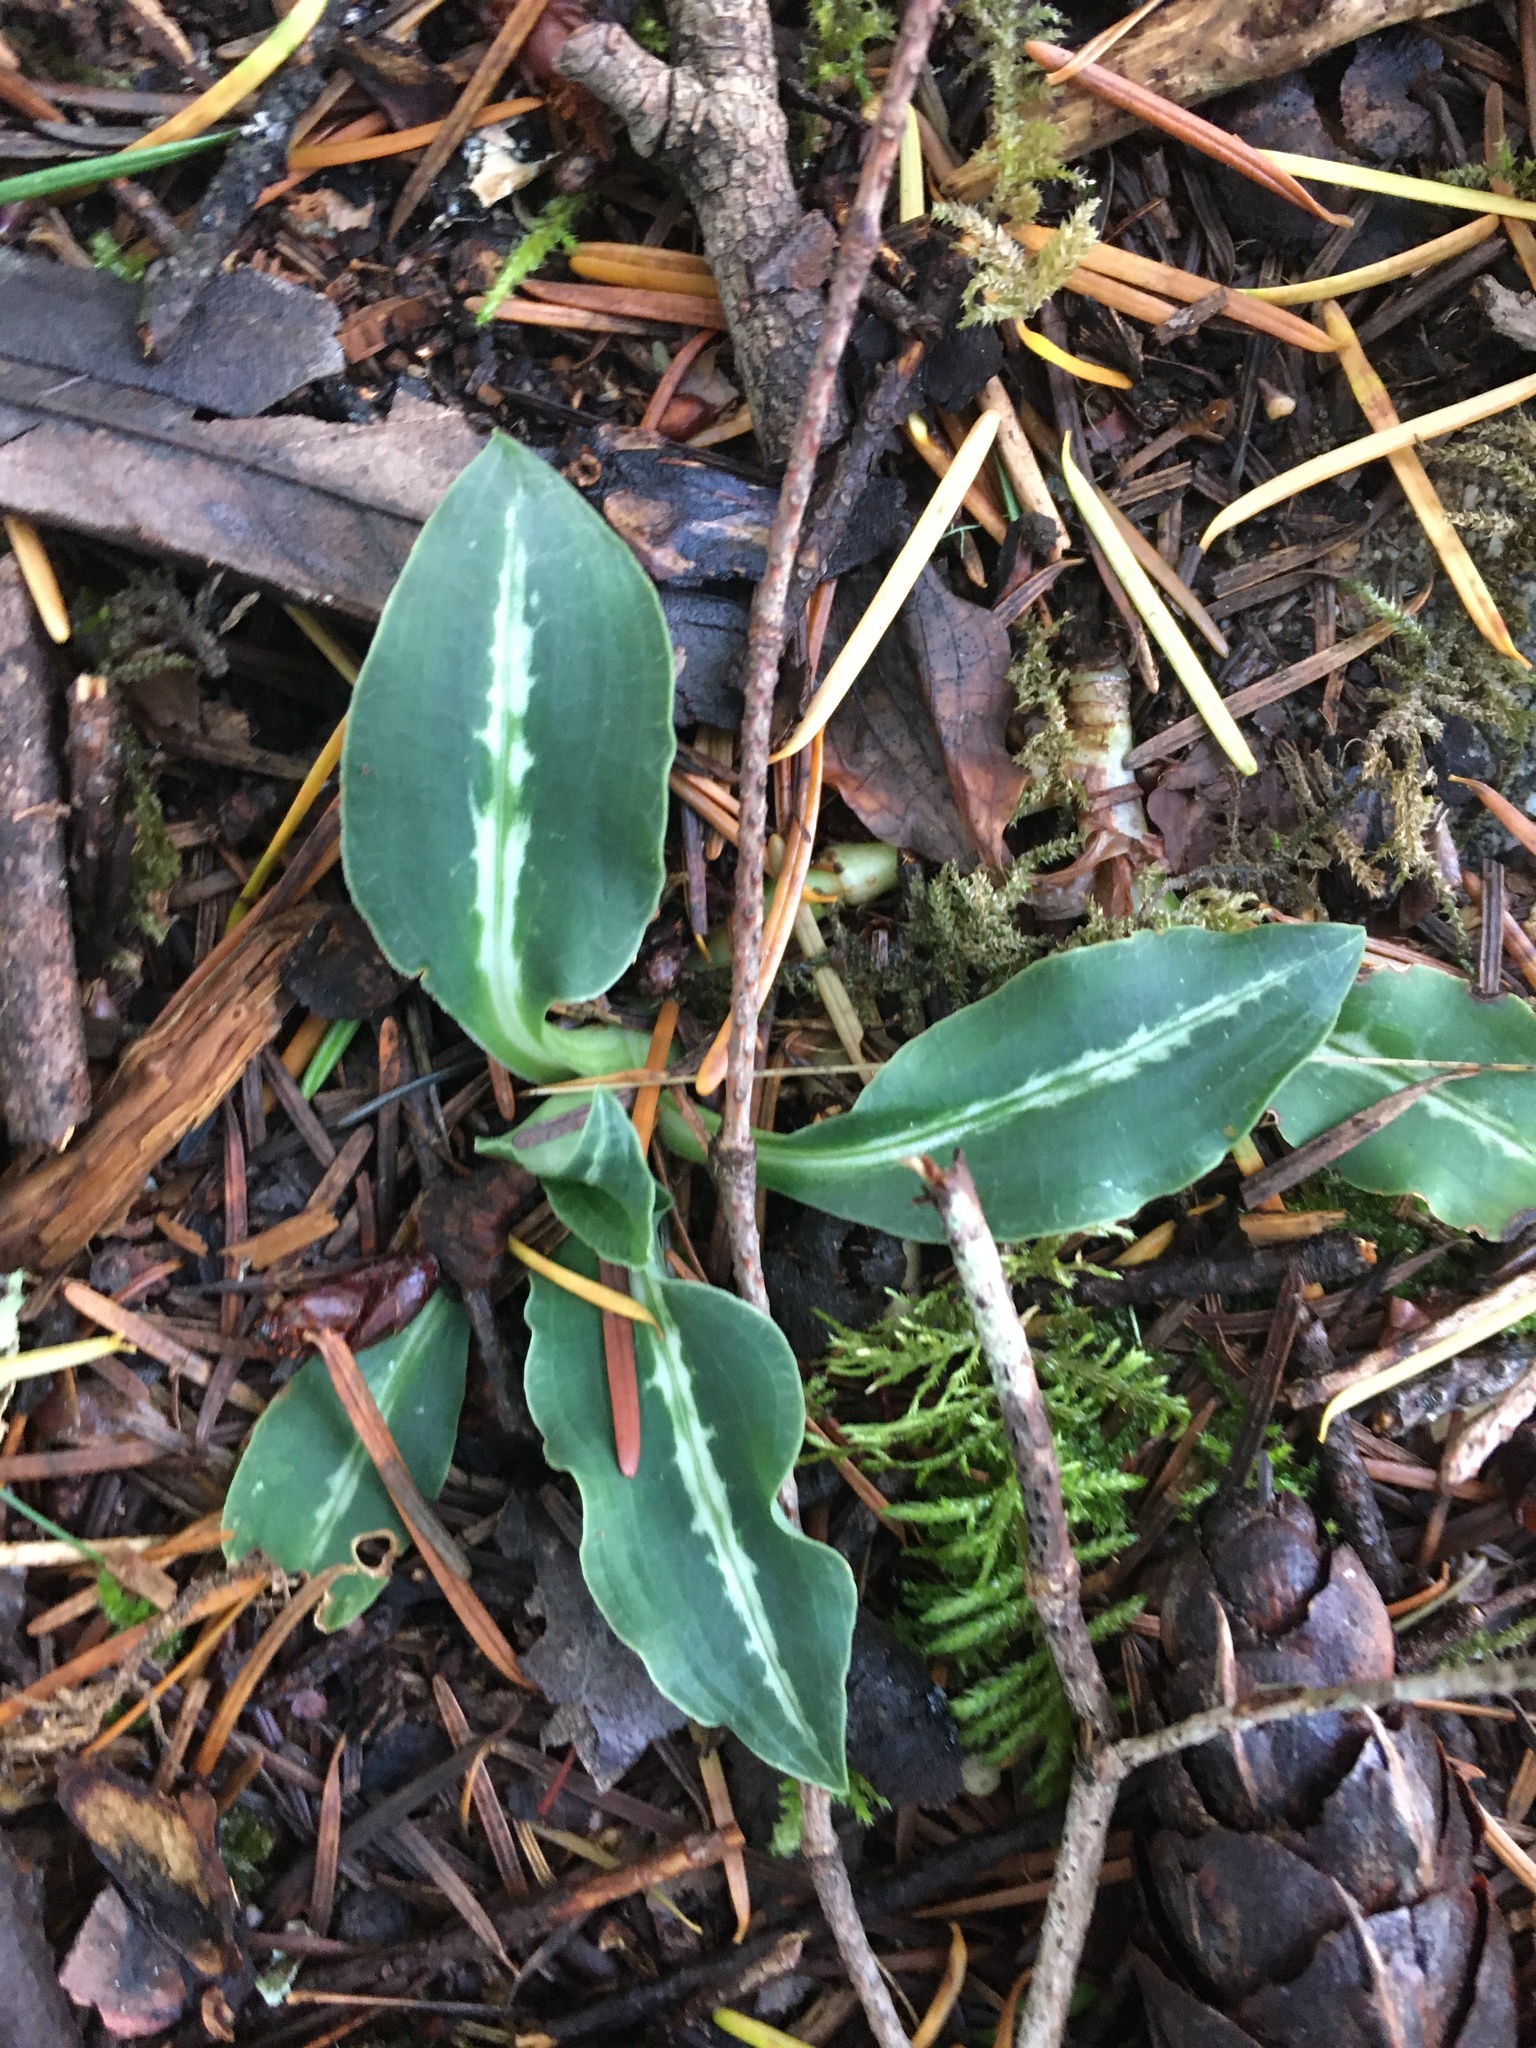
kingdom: Plantae
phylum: Tracheophyta
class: Liliopsida
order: Asparagales
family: Orchidaceae
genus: Goodyera
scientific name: Goodyera oblongifolia
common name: Giant rattlesnake-plantain
